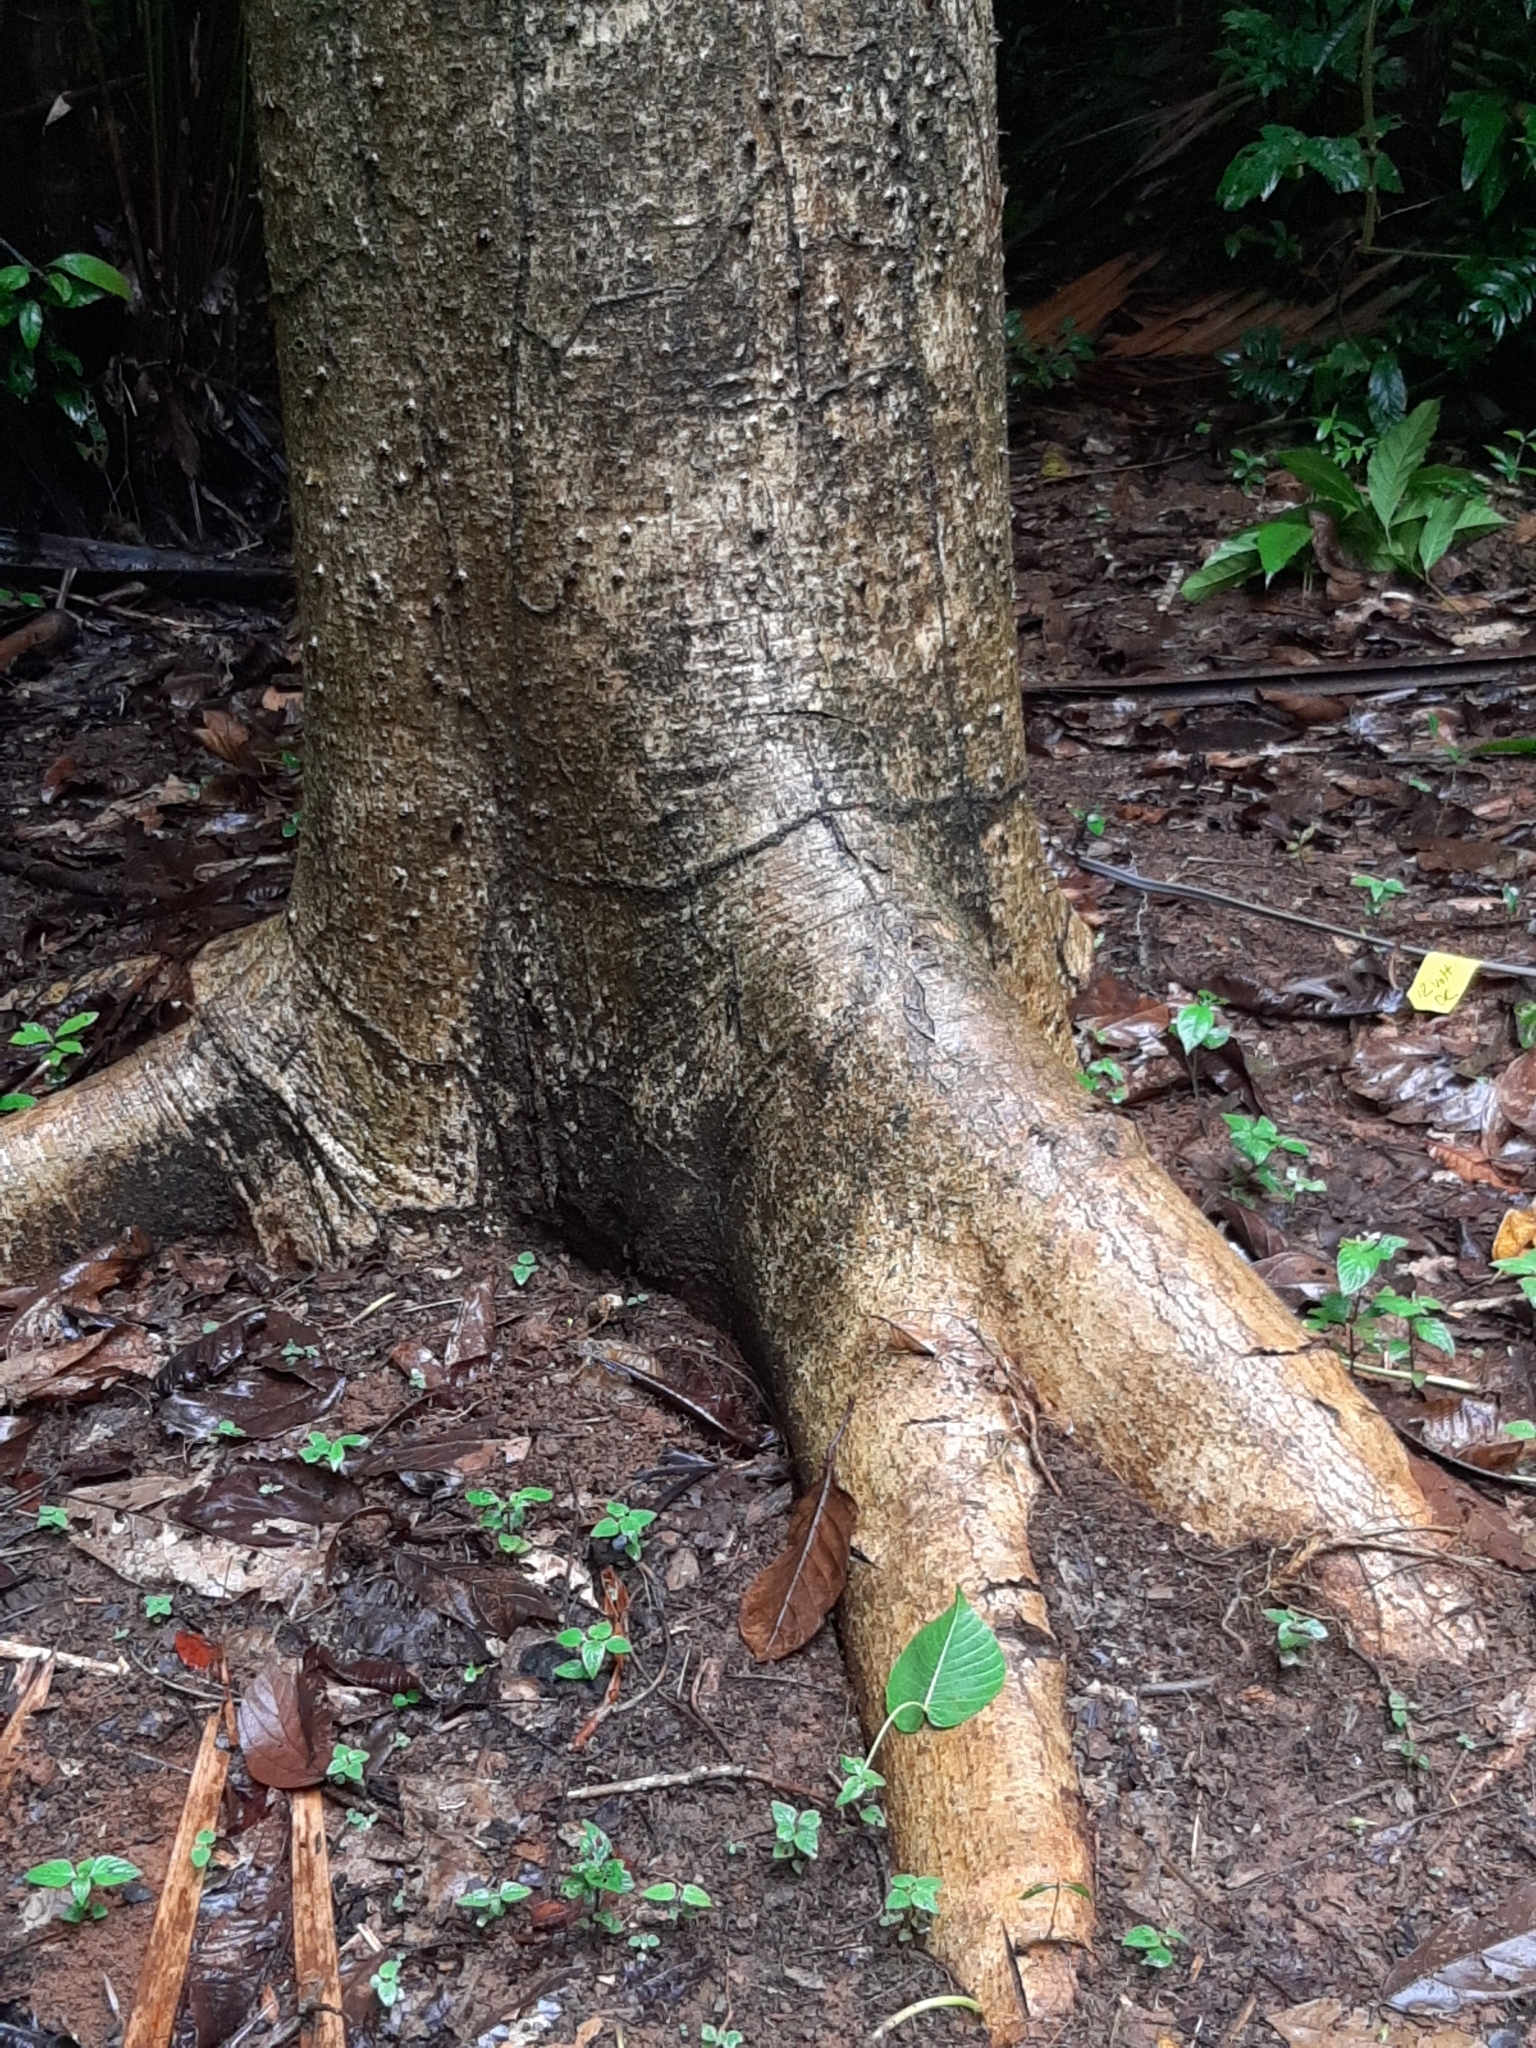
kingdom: Plantae
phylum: Tracheophyta
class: Magnoliopsida
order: Malpighiales
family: Euphorbiaceae
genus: Hura
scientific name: Hura crepitans
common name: Sandboxtree
